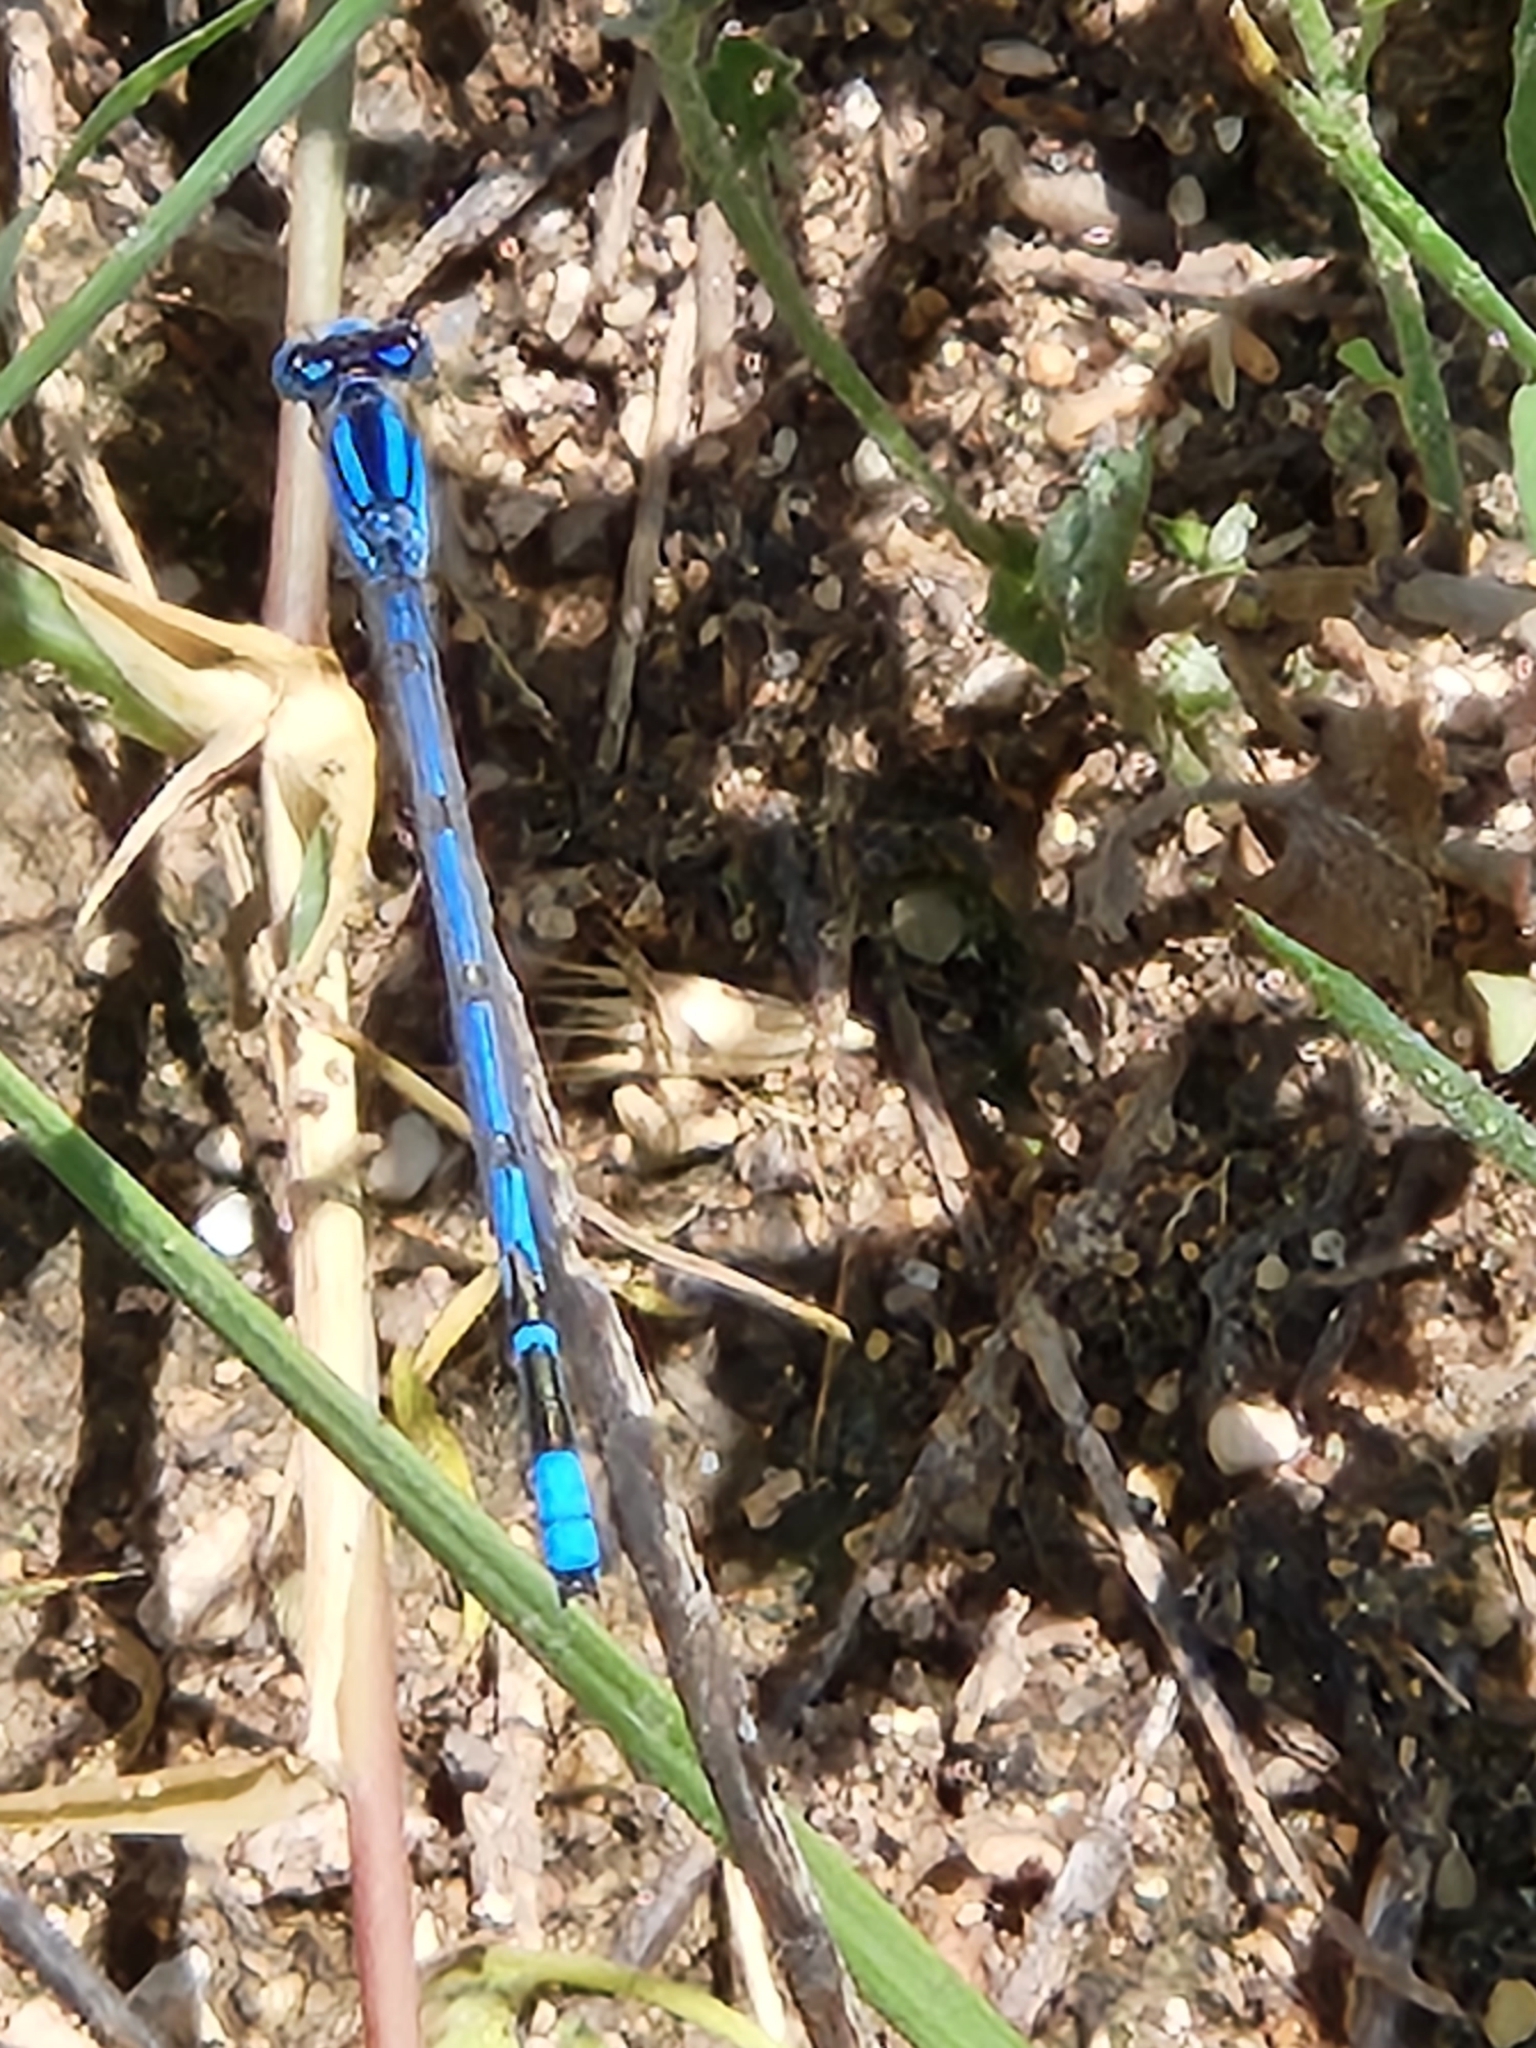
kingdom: Animalia
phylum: Arthropoda
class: Insecta
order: Odonata
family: Coenagrionidae
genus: Enallagma
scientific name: Enallagma civile
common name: Damselfly
